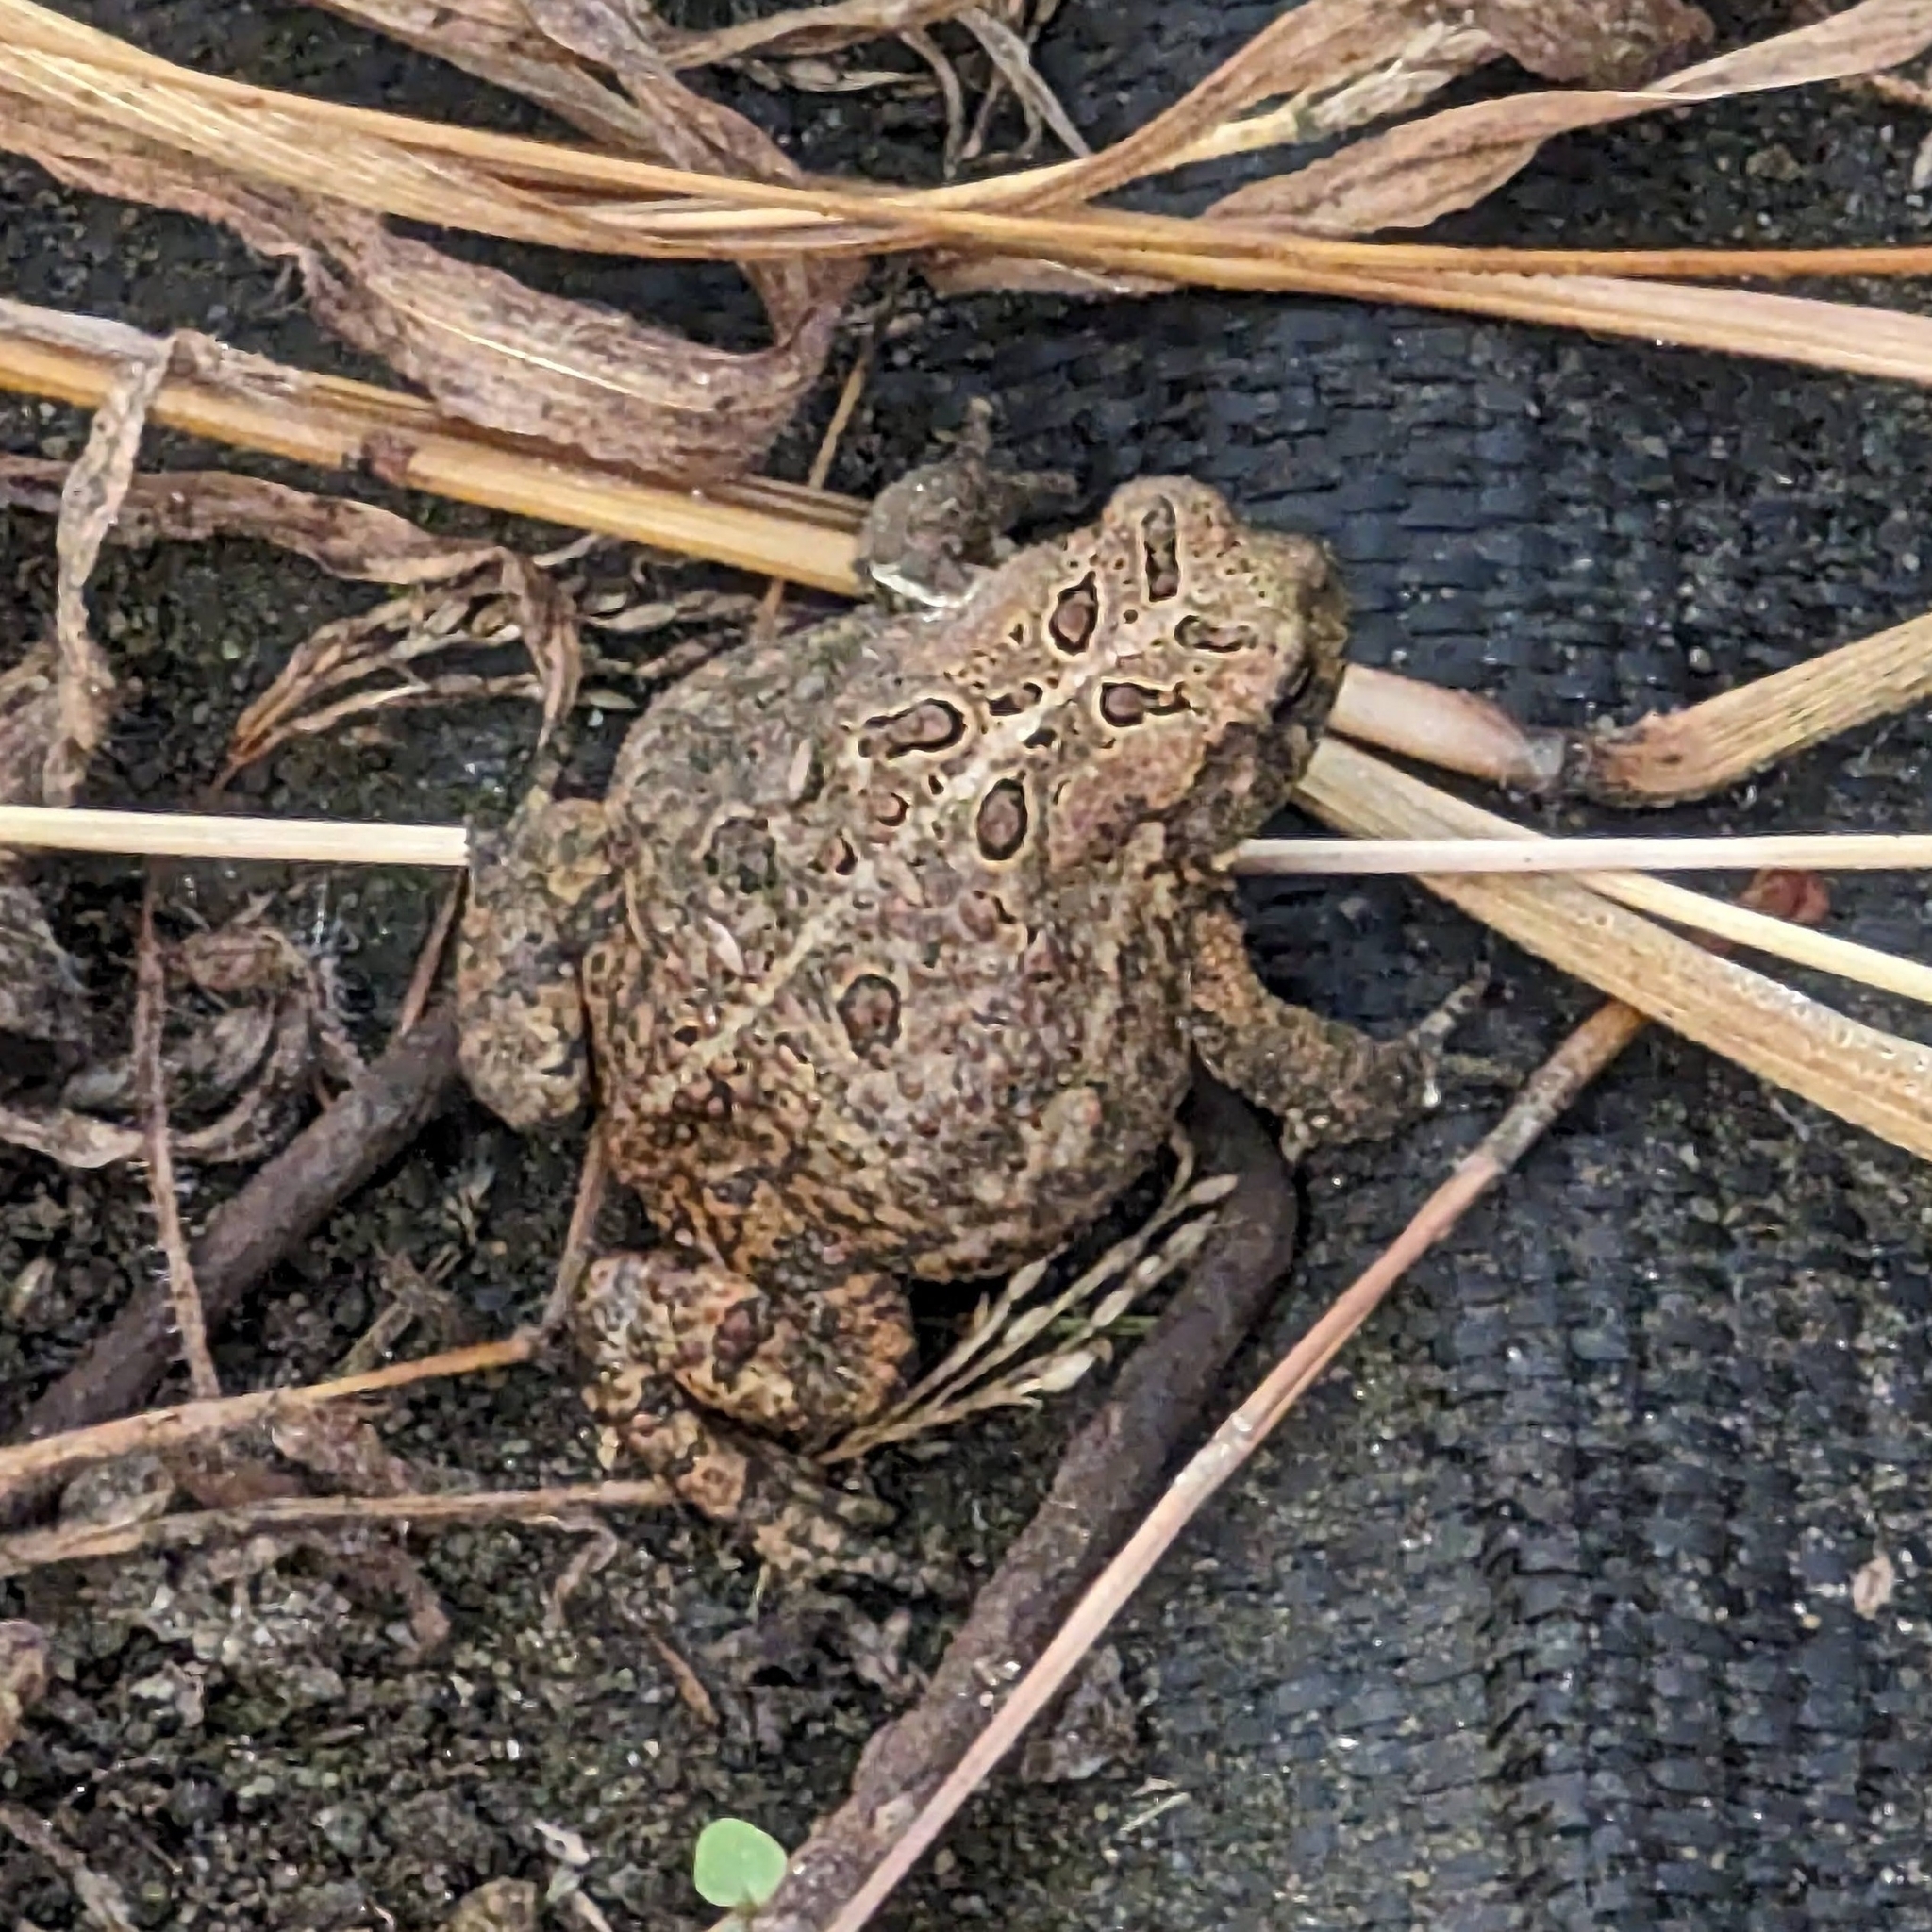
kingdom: Animalia
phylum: Chordata
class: Amphibia
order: Anura
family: Bufonidae
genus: Anaxyrus
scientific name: Anaxyrus americanus
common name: American toad
